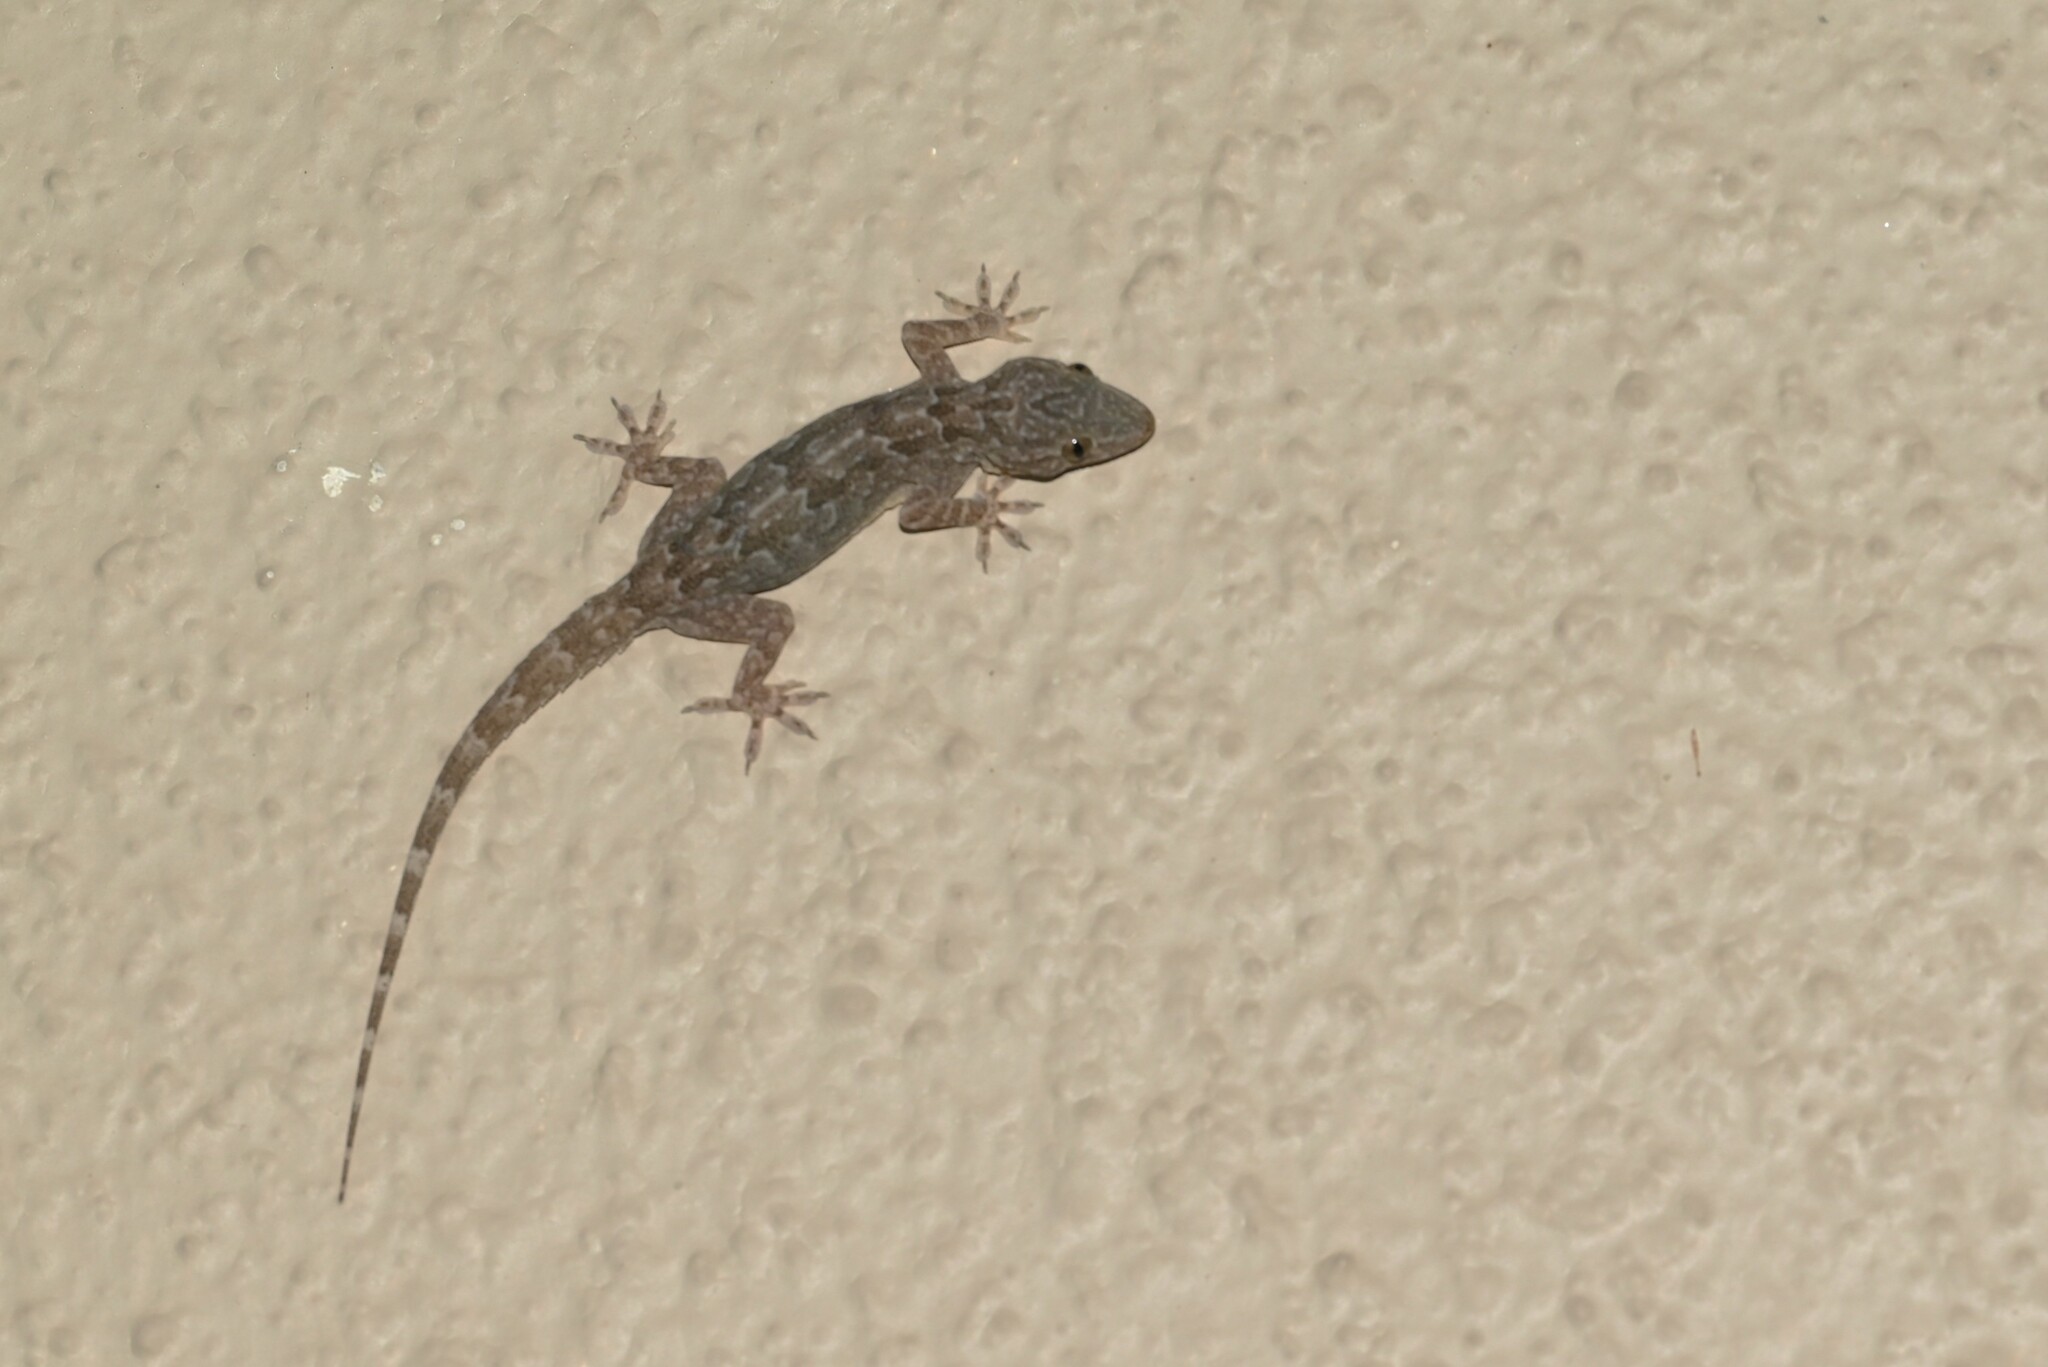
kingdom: Animalia
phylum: Chordata
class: Squamata
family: Gekkonidae
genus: Hemidactylus
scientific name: Hemidactylus flaviviridis
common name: Northern house gecko
